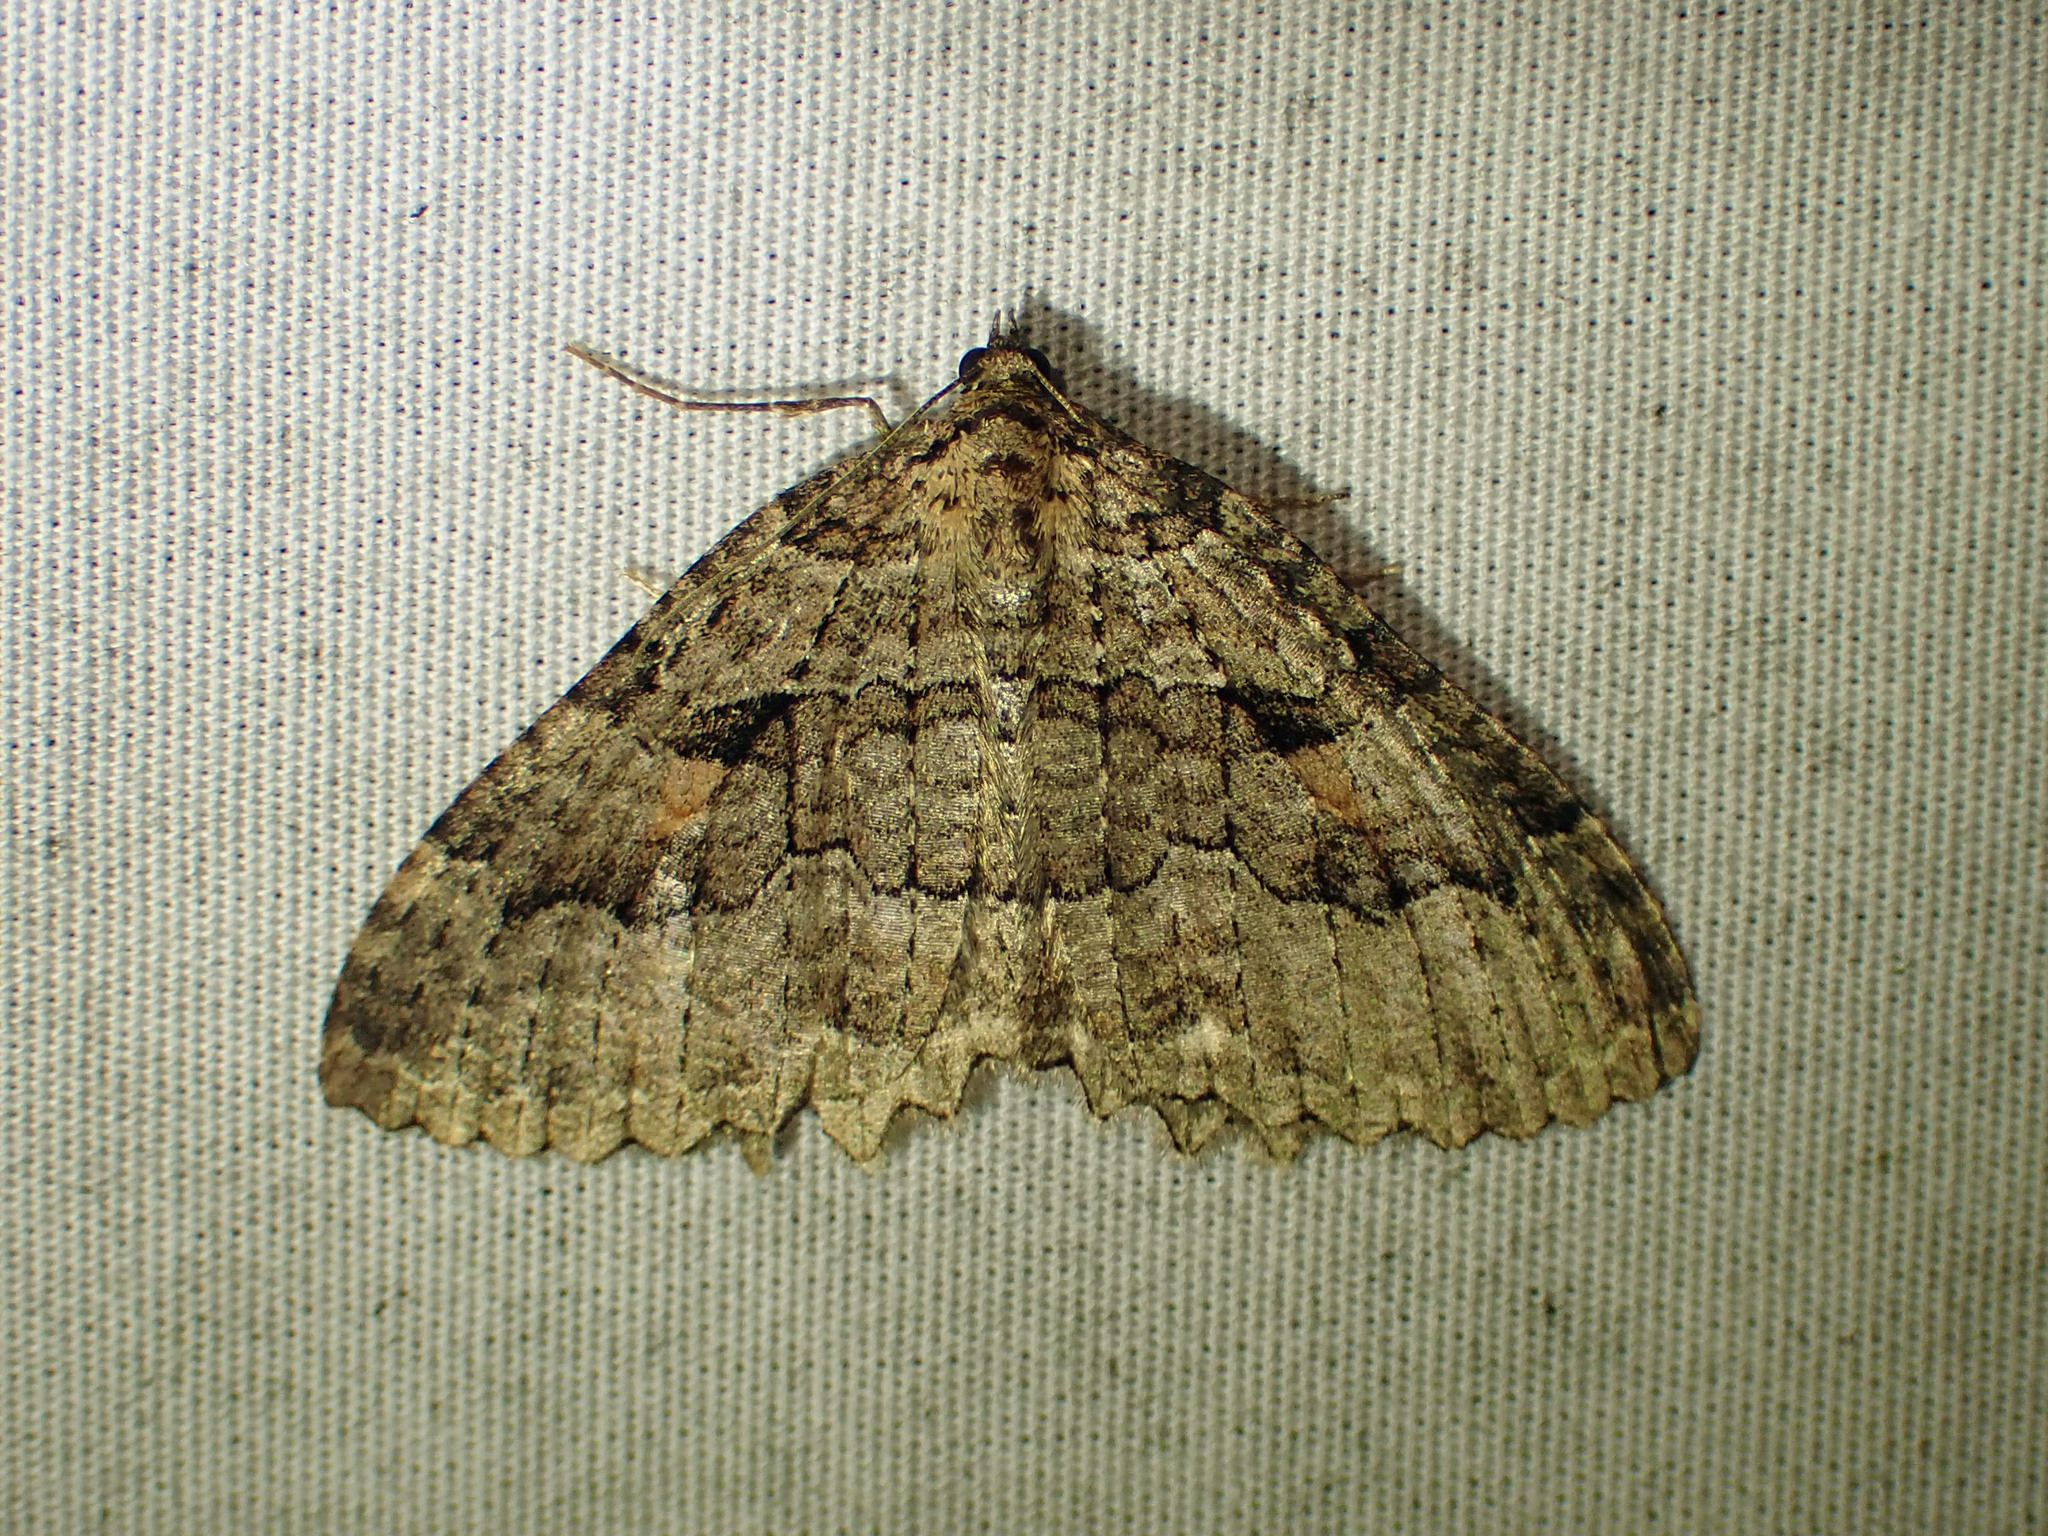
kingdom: Animalia
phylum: Arthropoda
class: Insecta
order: Lepidoptera
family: Geometridae
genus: Triphosa
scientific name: Triphosa haesitata
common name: Tissue moth
